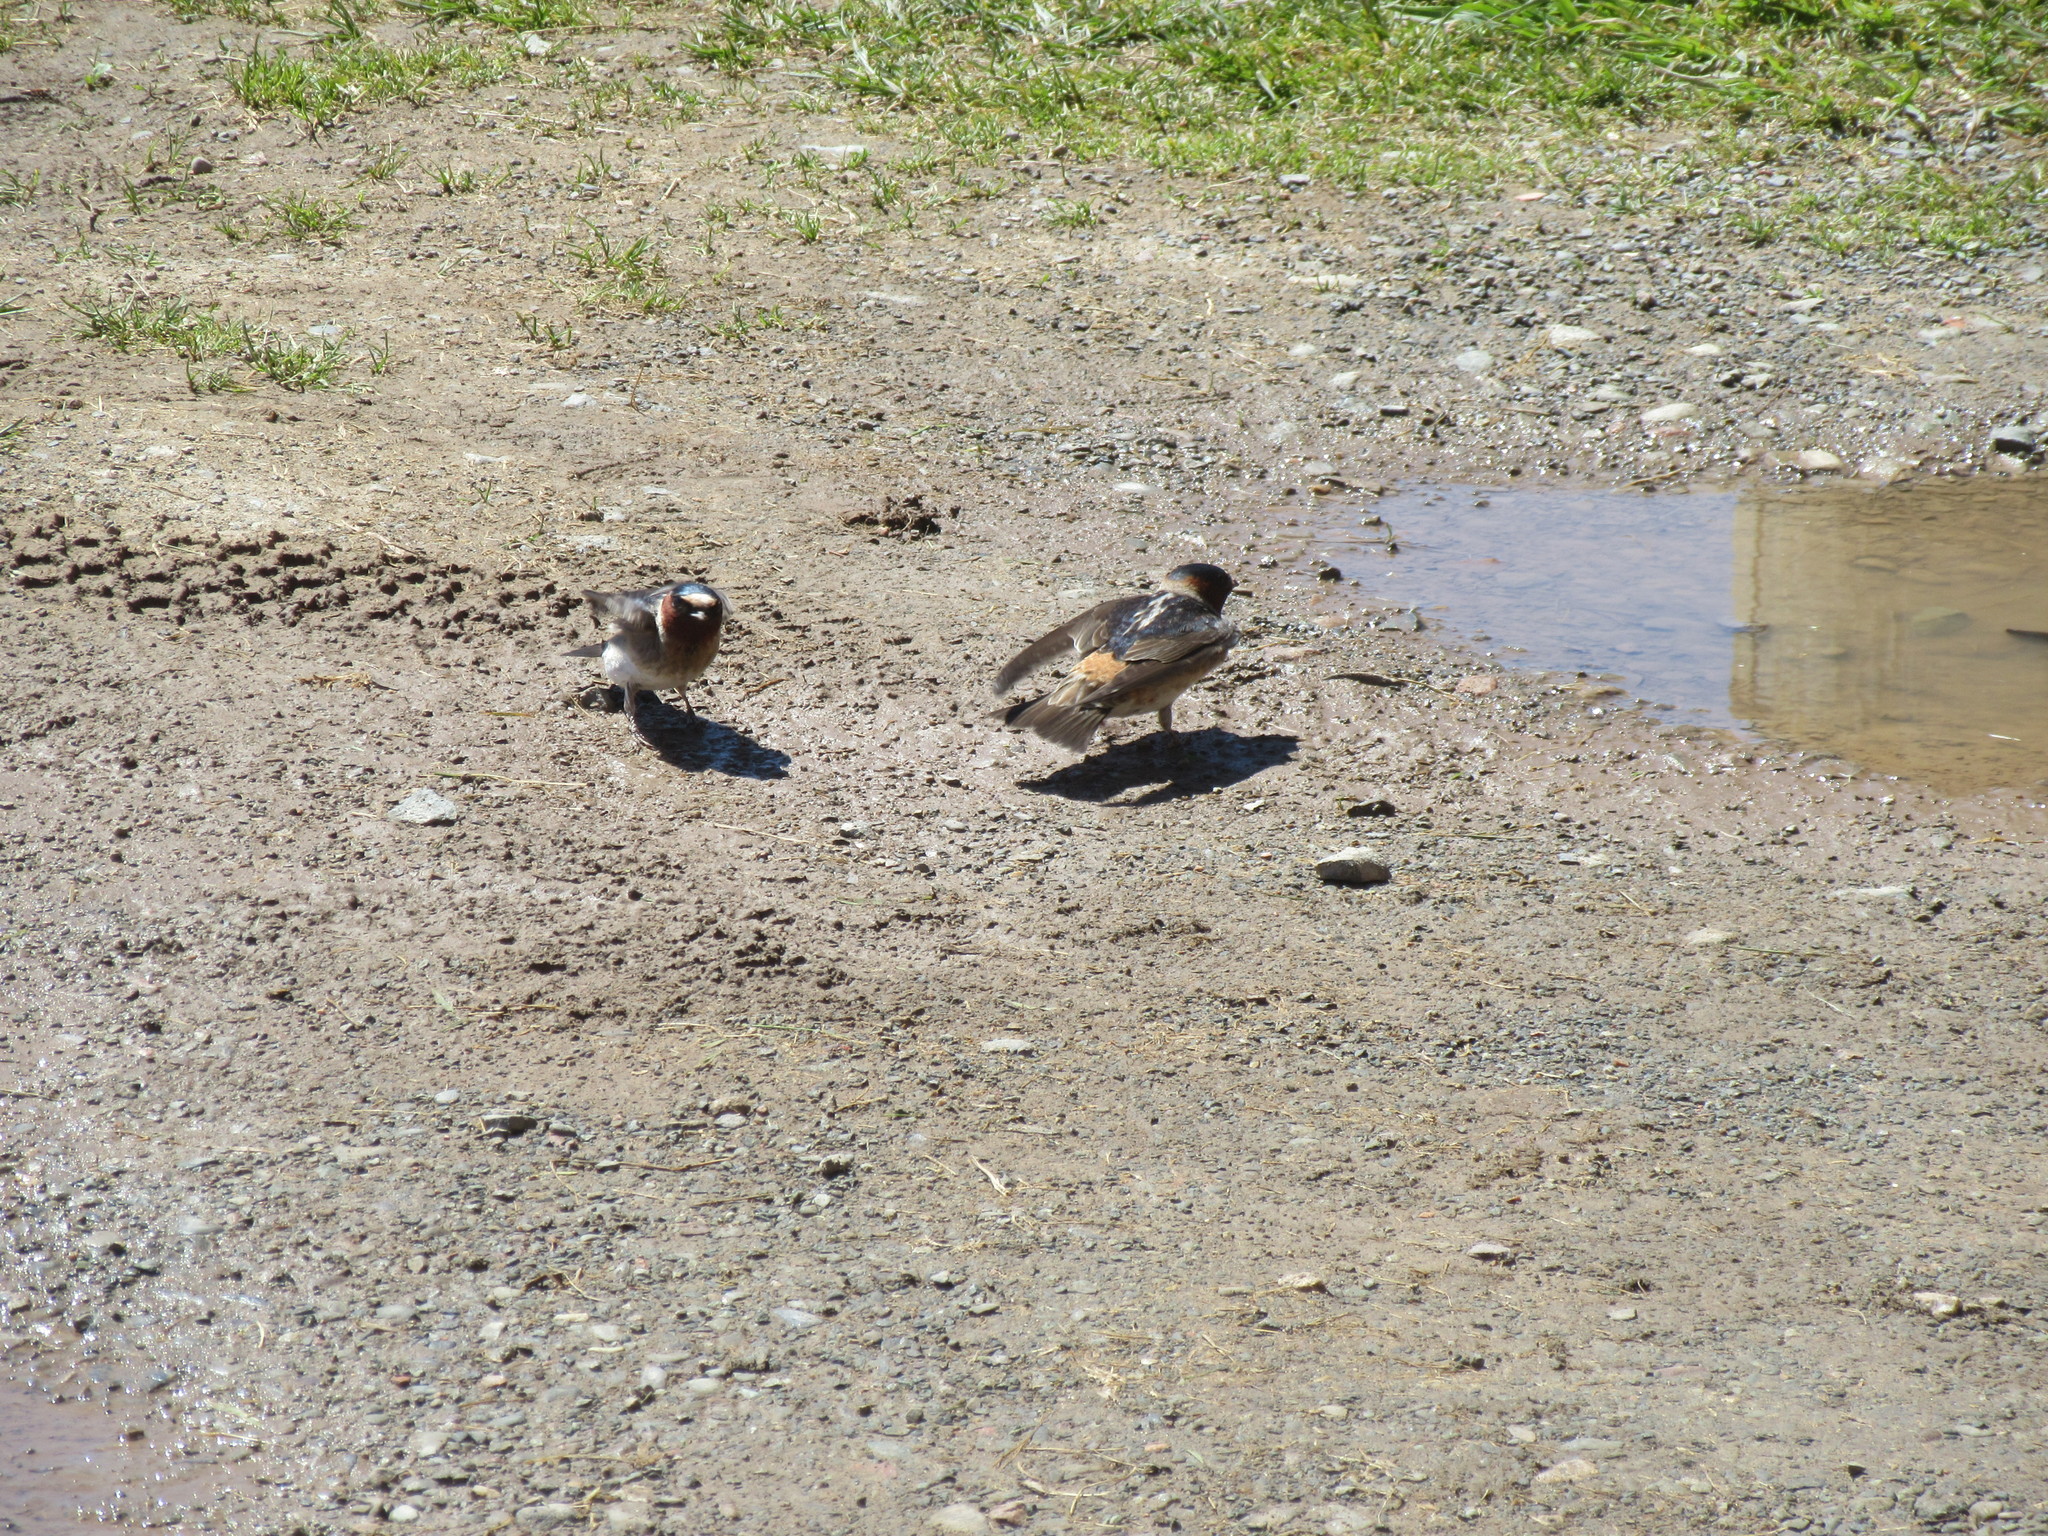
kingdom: Animalia
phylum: Chordata
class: Aves
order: Passeriformes
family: Hirundinidae
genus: Petrochelidon
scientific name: Petrochelidon pyrrhonota
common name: American cliff swallow
